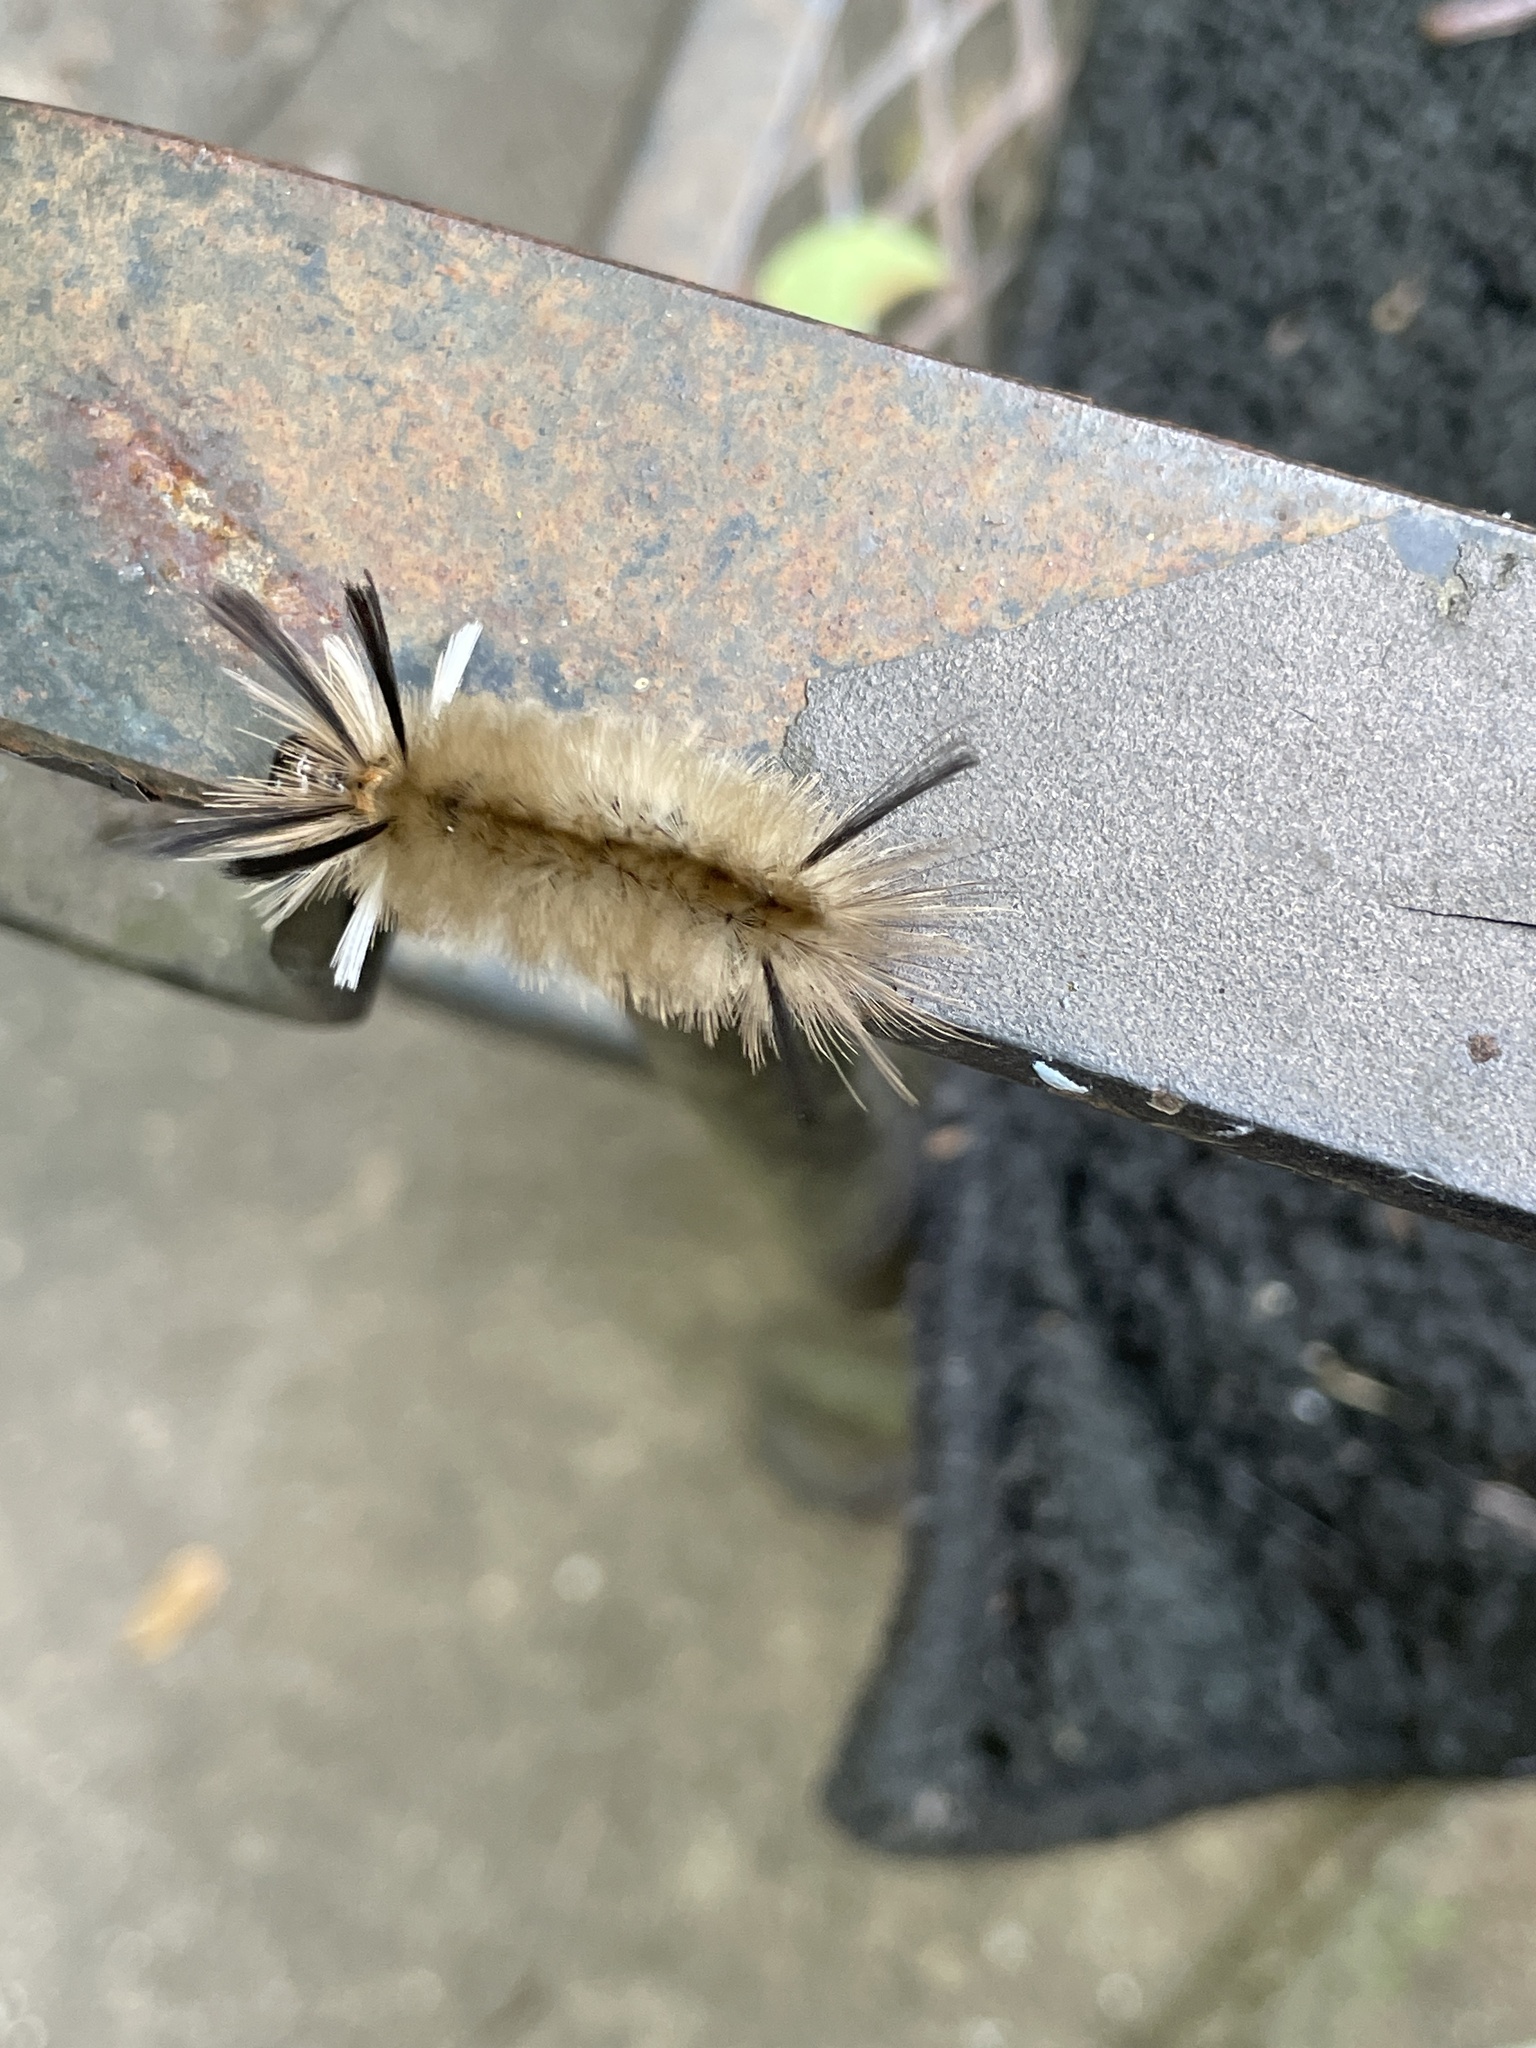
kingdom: Animalia
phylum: Arthropoda
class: Insecta
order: Lepidoptera
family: Erebidae
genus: Halysidota
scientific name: Halysidota tessellaris
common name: Banded tussock moth
